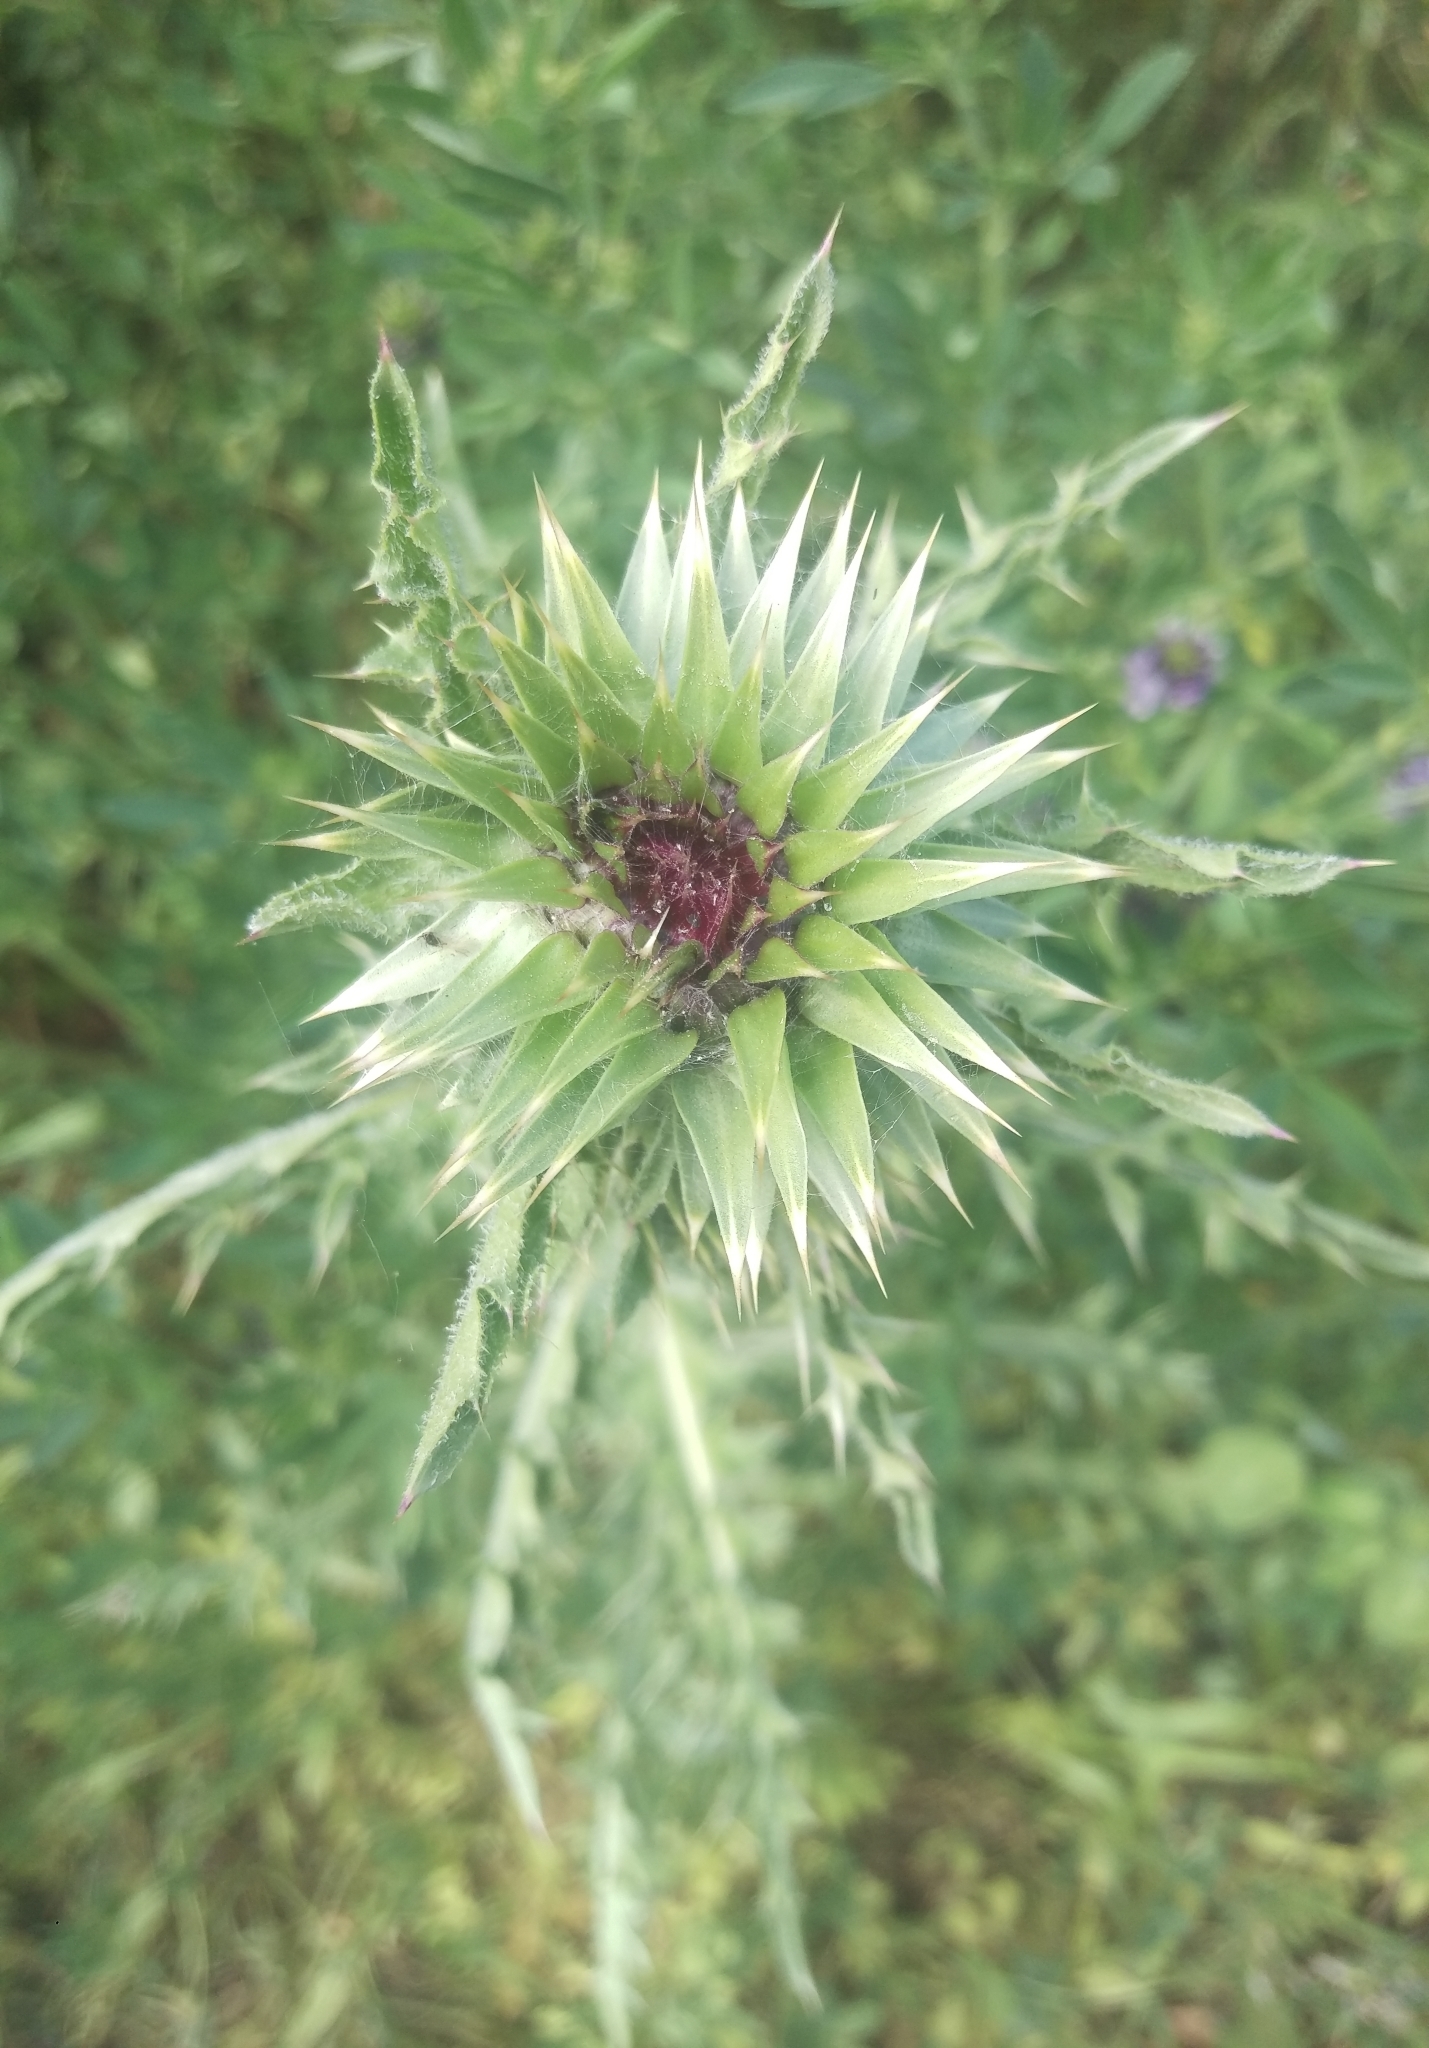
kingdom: Plantae
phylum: Tracheophyta
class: Magnoliopsida
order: Asterales
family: Asteraceae
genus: Carduus
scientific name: Carduus nutans
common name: Musk thistle
